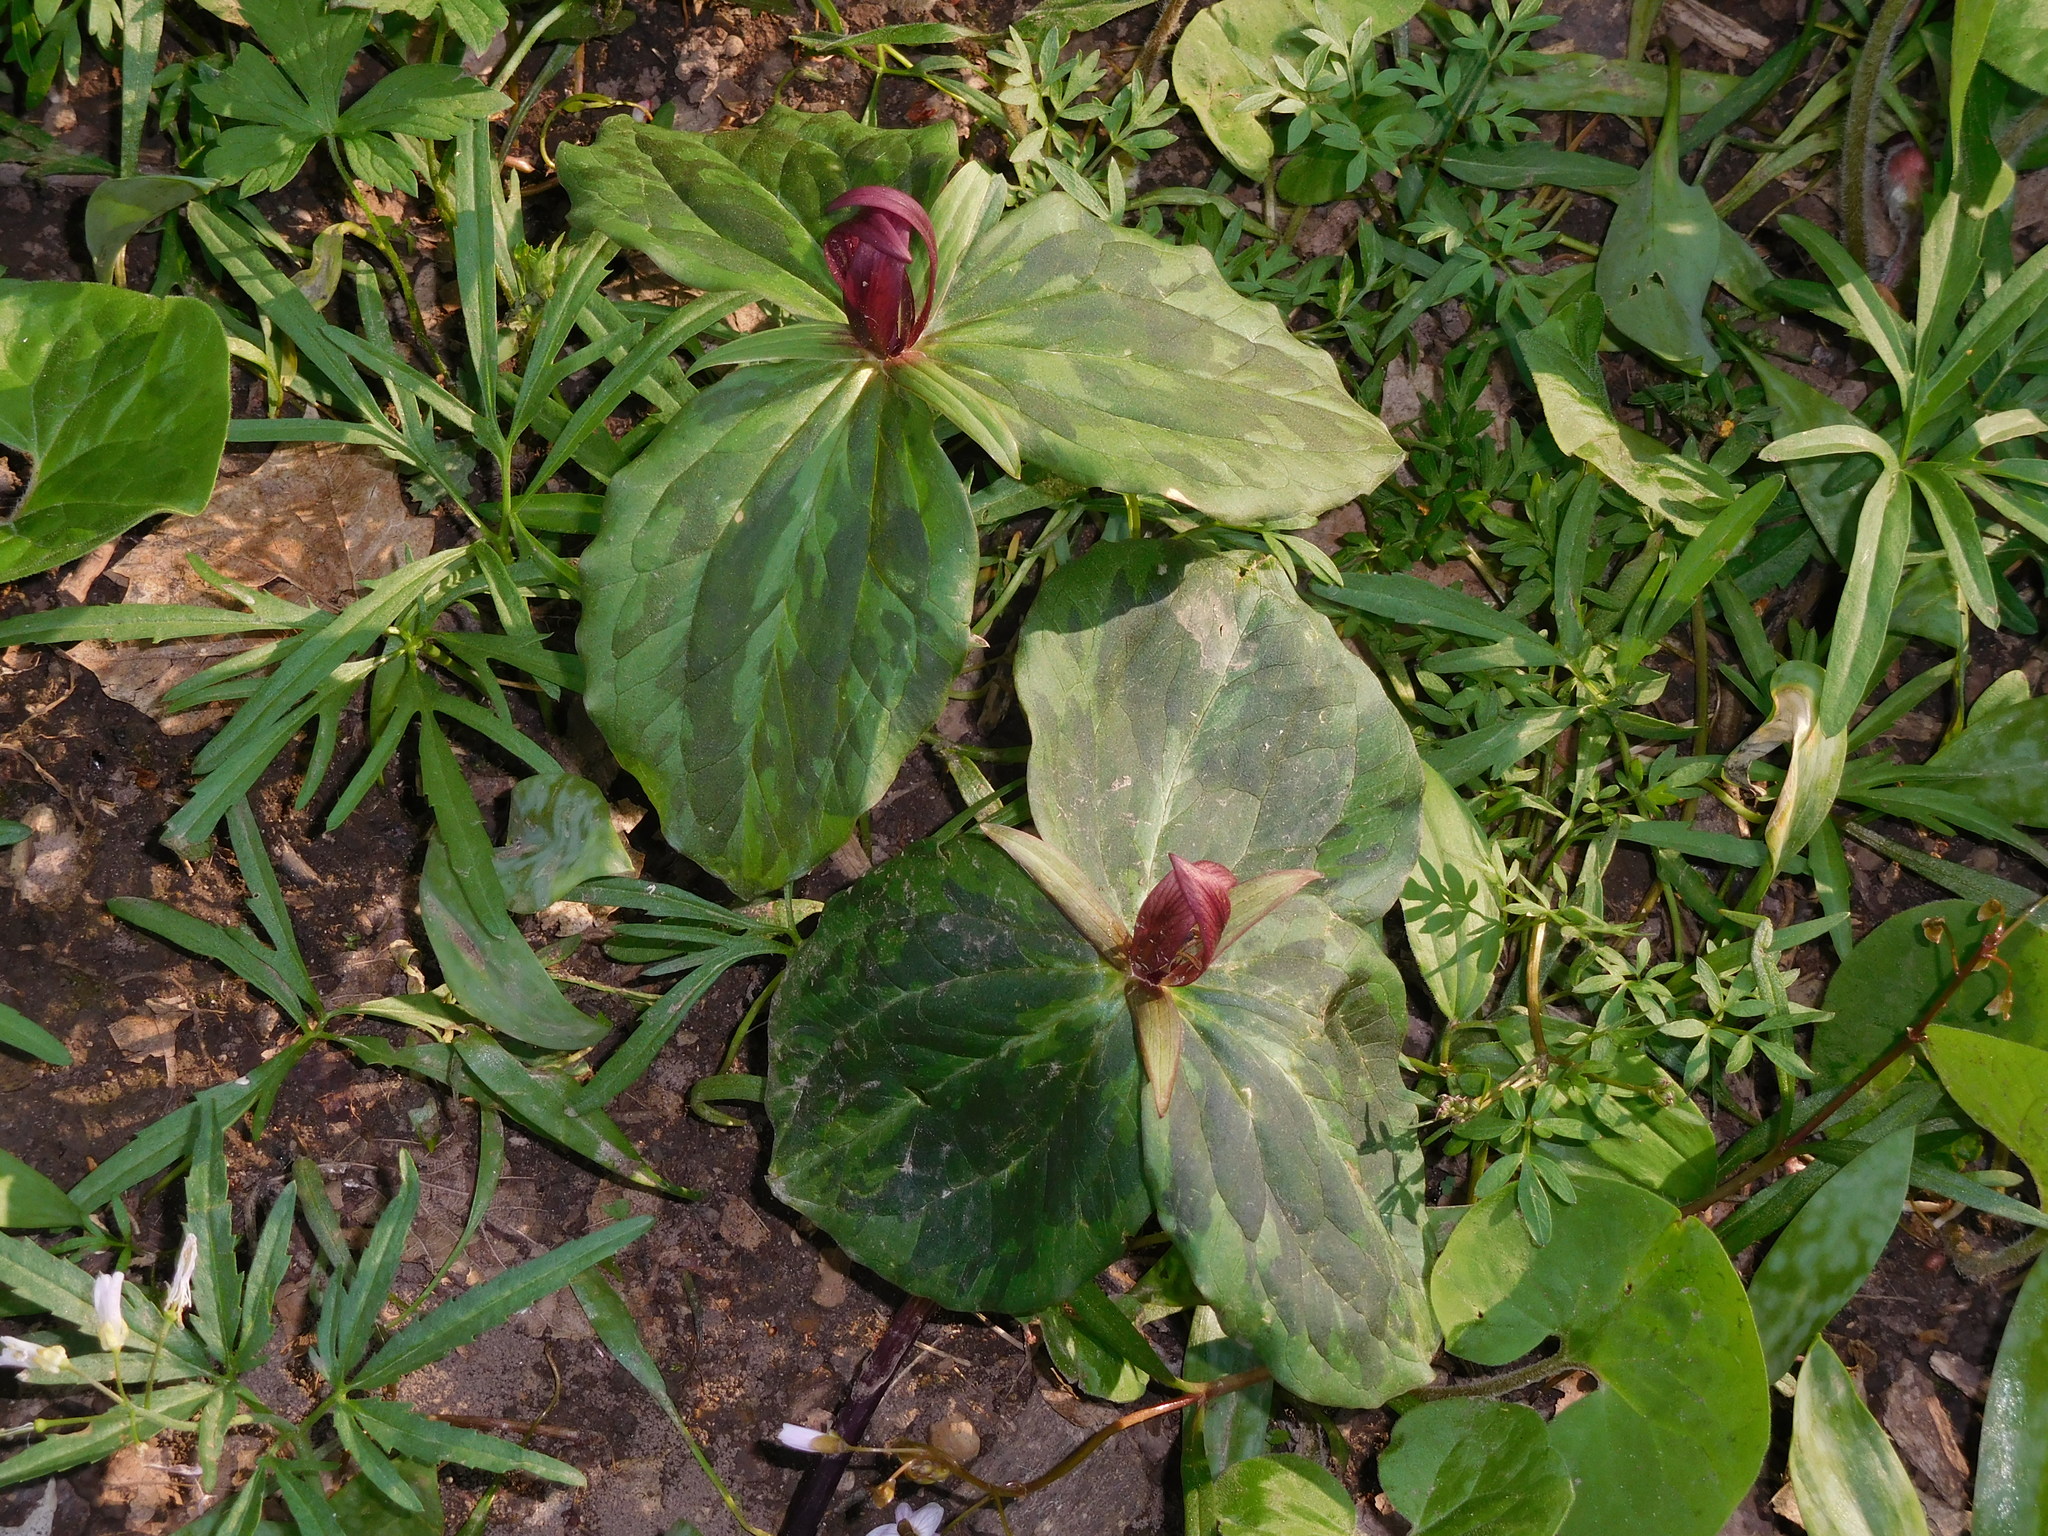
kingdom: Plantae
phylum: Tracheophyta
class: Liliopsida
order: Liliales
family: Melanthiaceae
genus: Trillium
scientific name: Trillium sessile
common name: Sessile trillium
